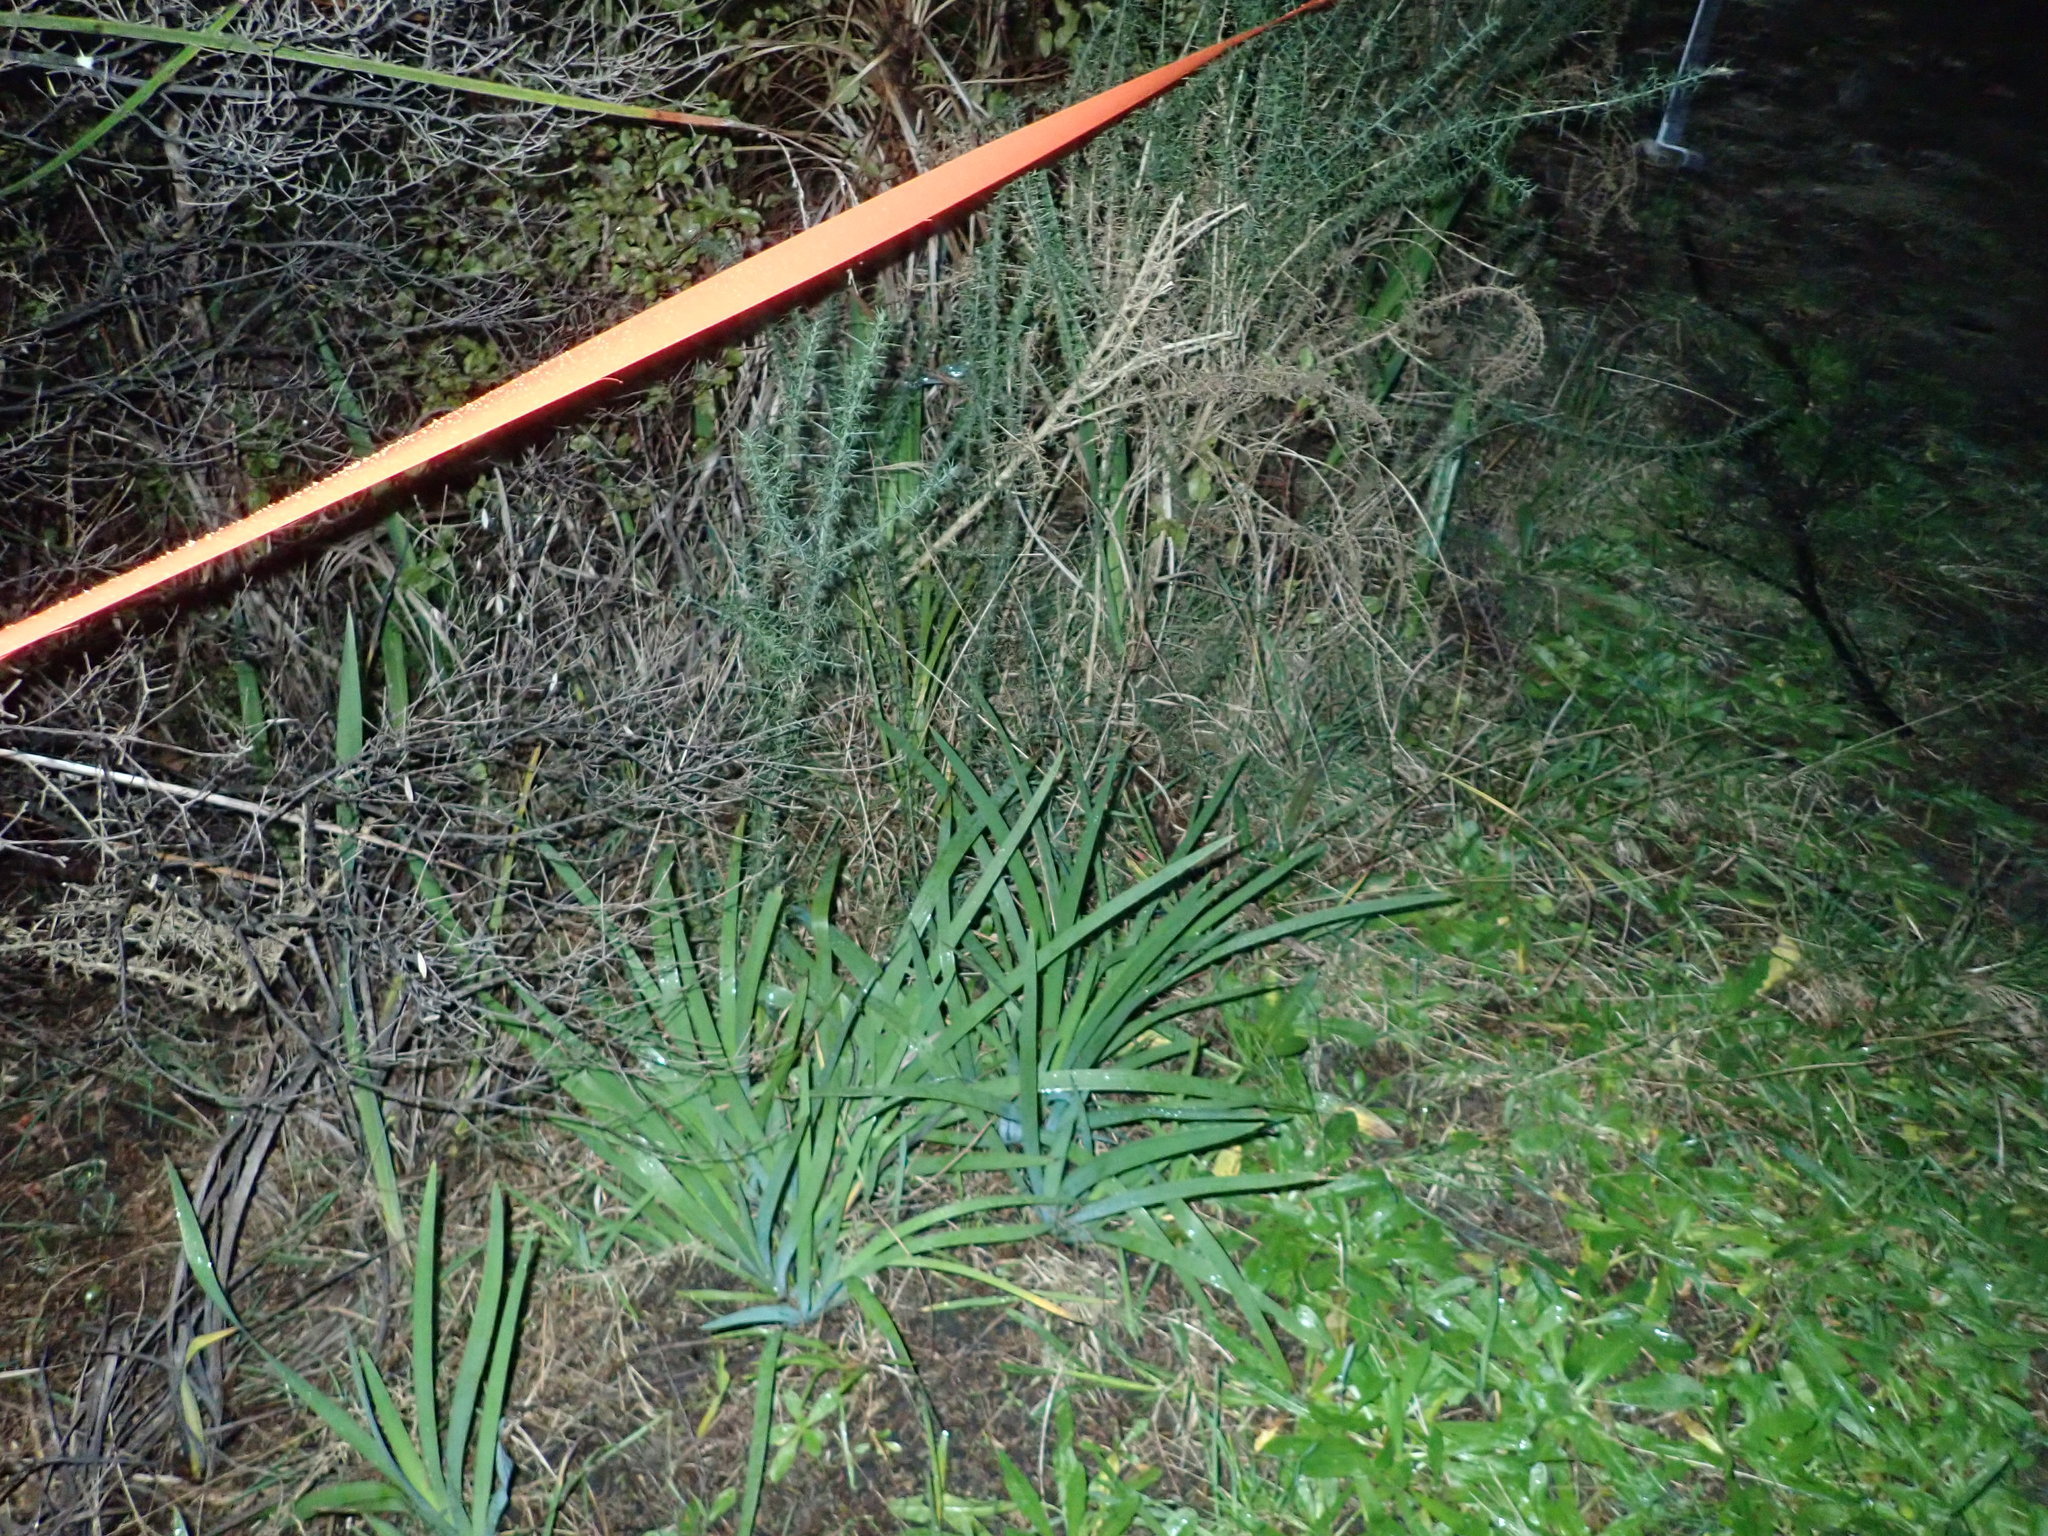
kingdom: Plantae
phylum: Tracheophyta
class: Magnoliopsida
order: Fabales
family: Fabaceae
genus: Ulex
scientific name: Ulex europaeus
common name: Common gorse
